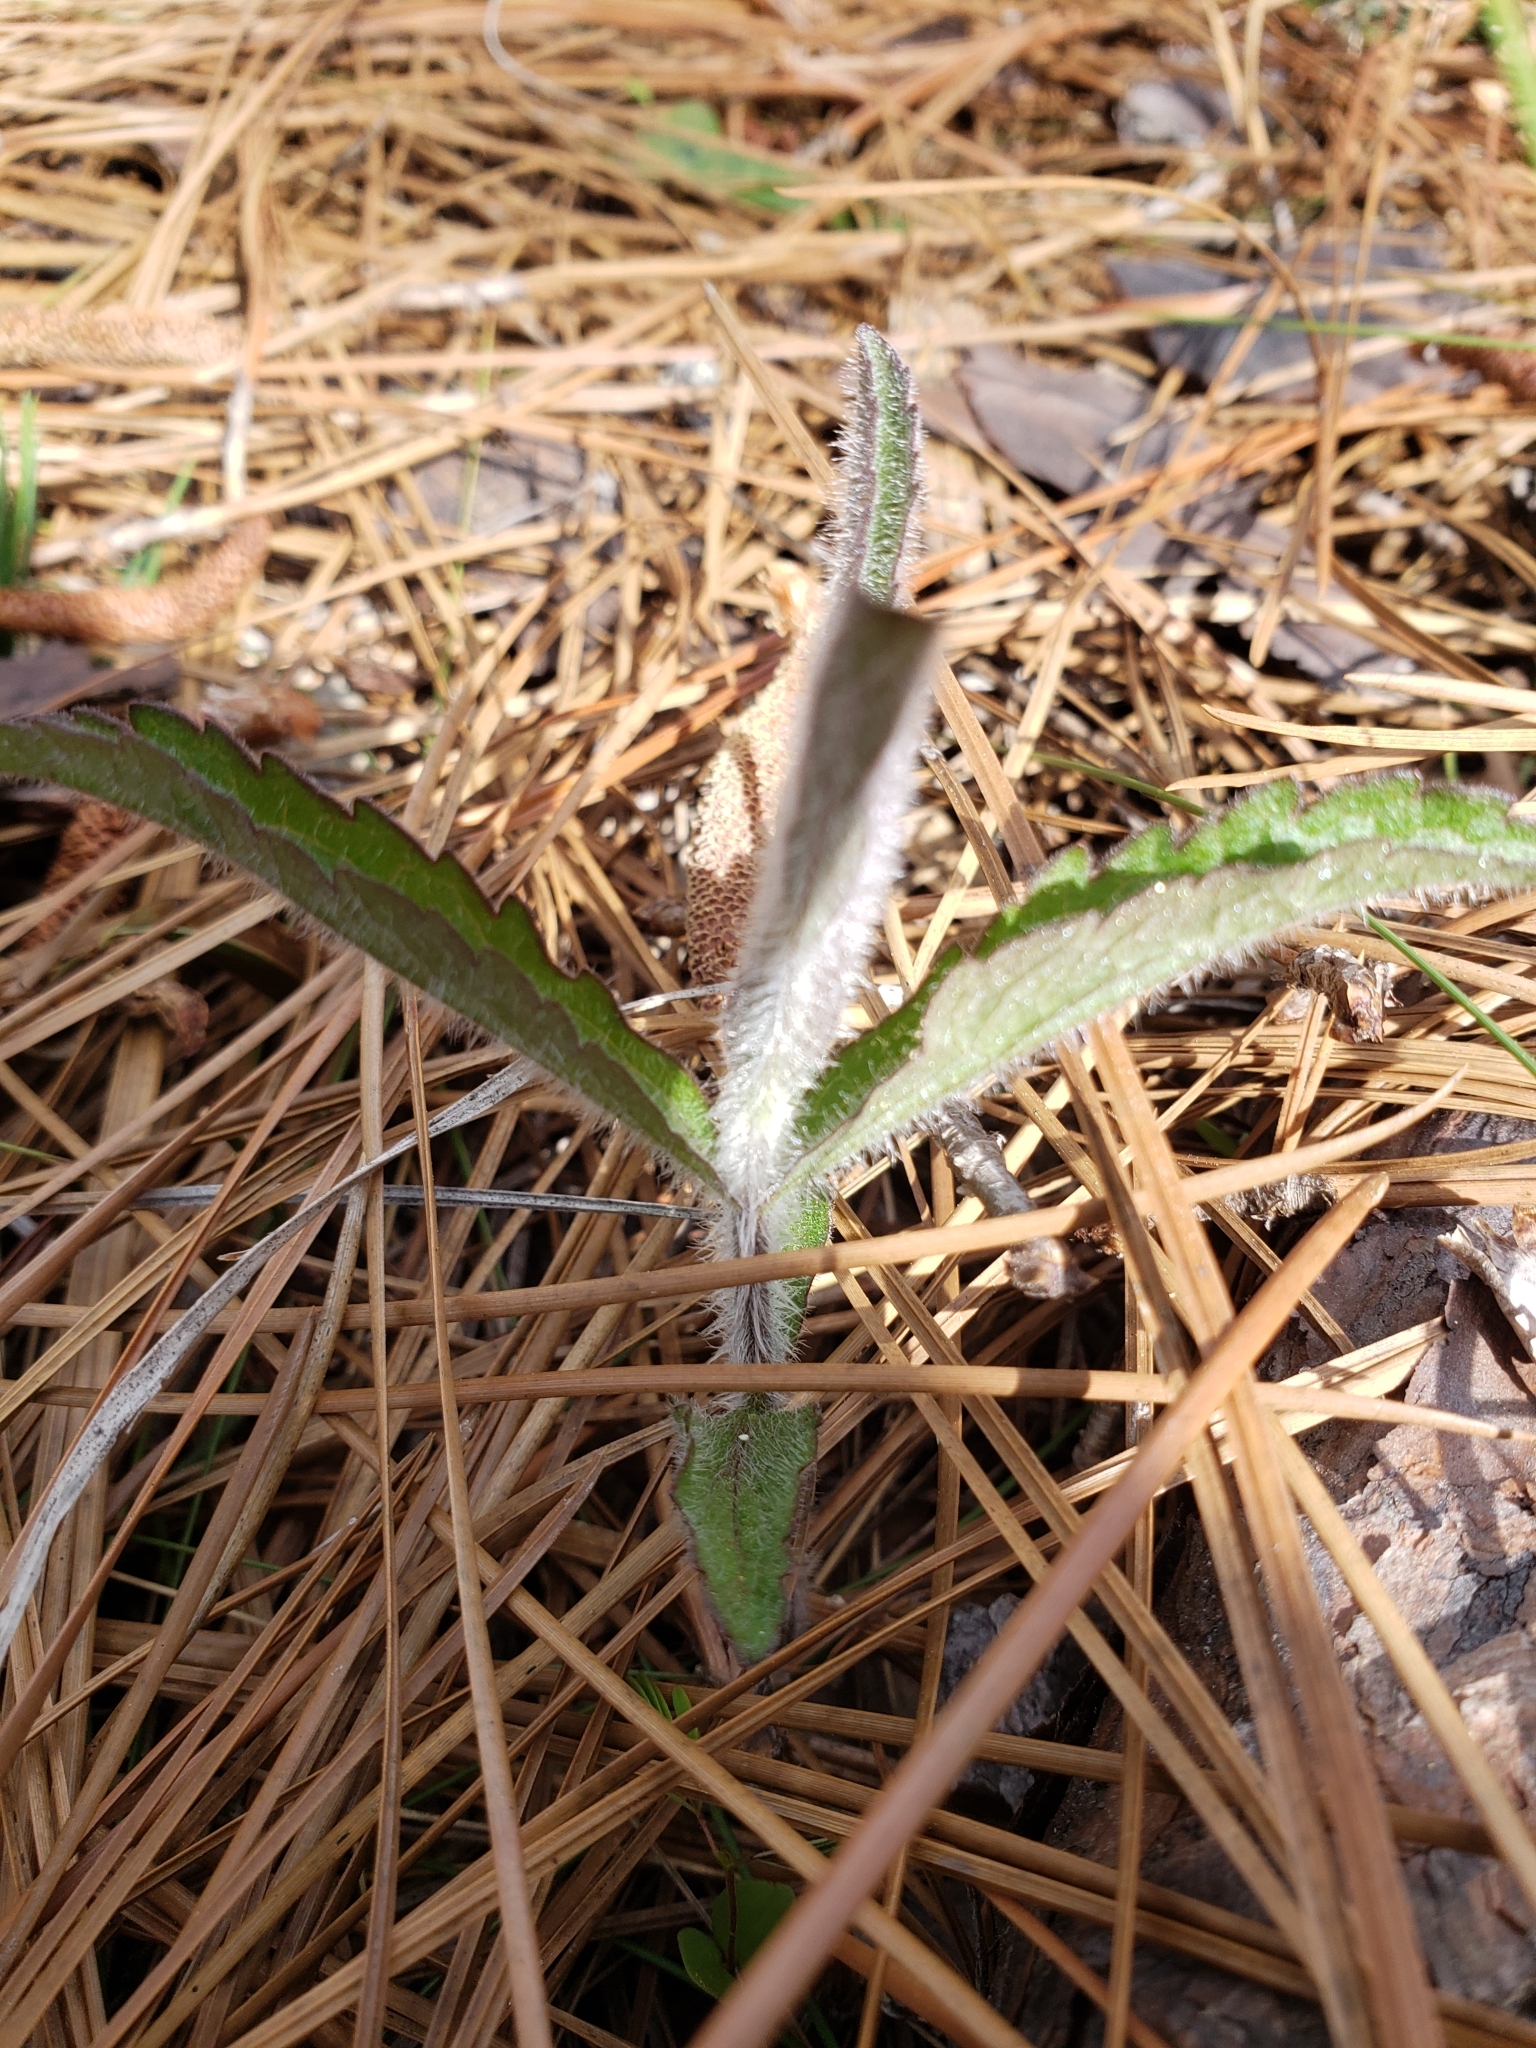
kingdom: Plantae
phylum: Tracheophyta
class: Magnoliopsida
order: Asterales
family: Asteraceae
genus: Eupatorium
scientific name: Eupatorium album
